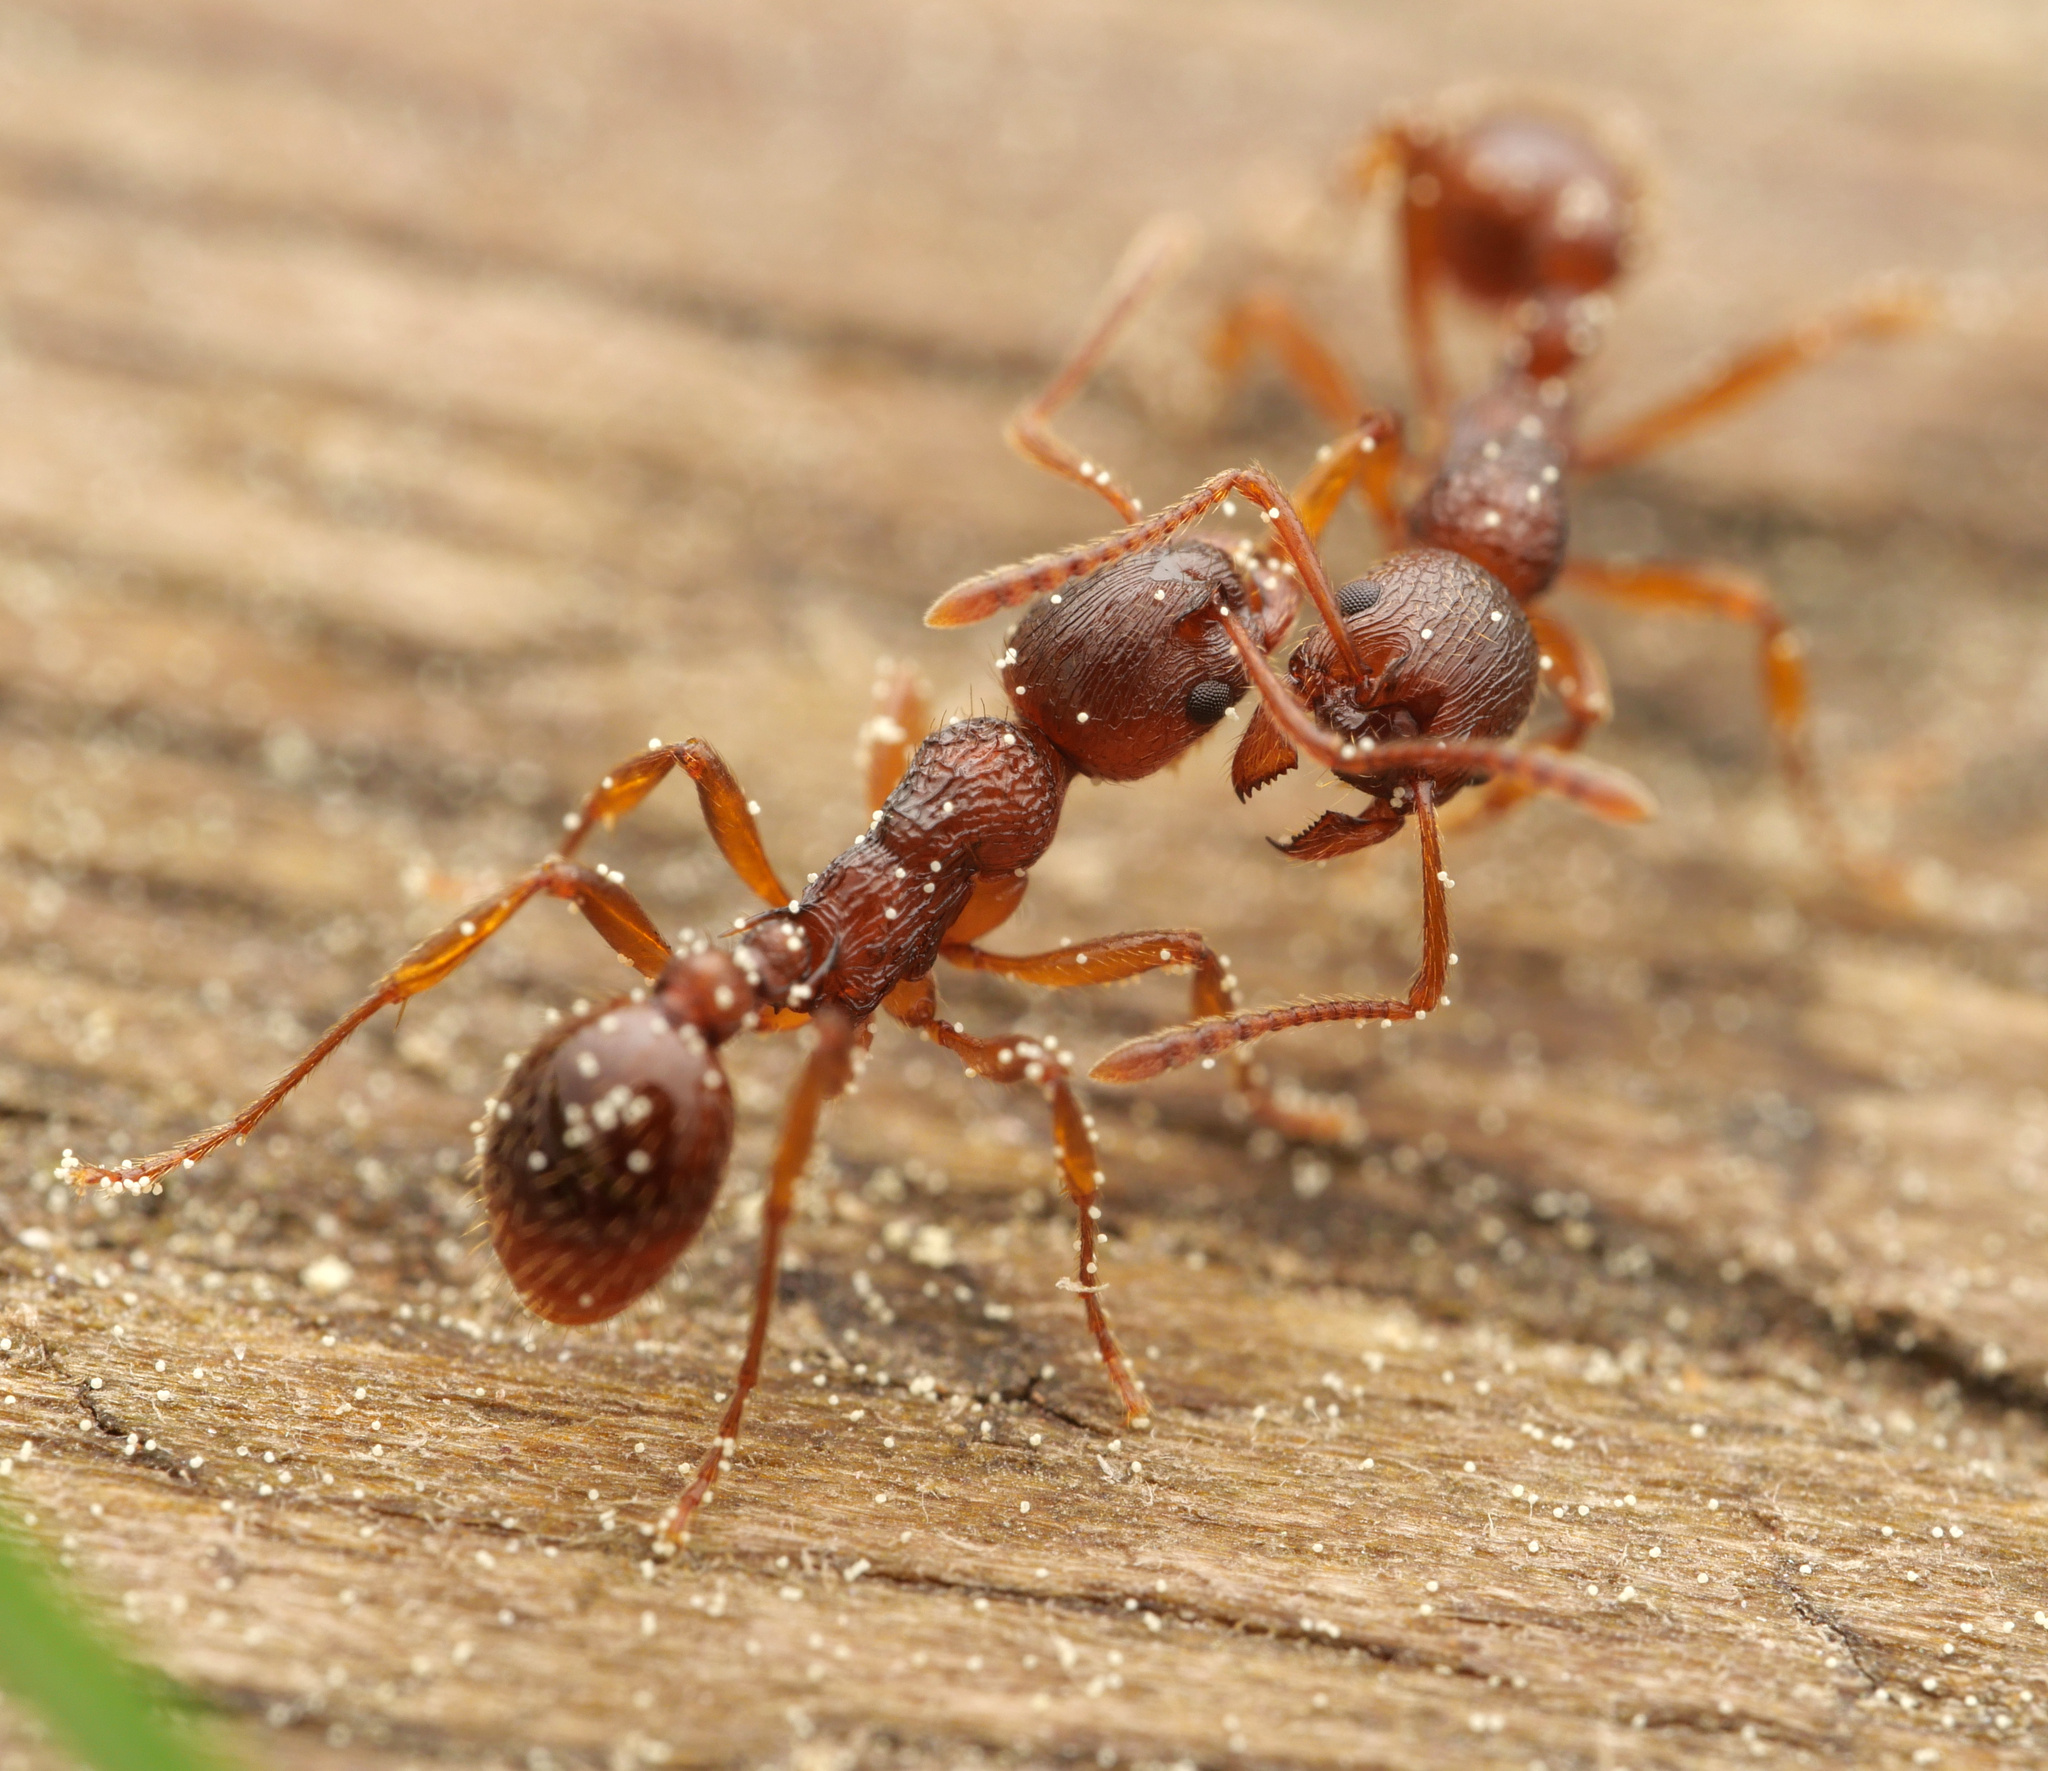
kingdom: Animalia
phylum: Arthropoda
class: Insecta
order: Hymenoptera
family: Formicidae
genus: Myrmica
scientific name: Myrmica ruginodis
